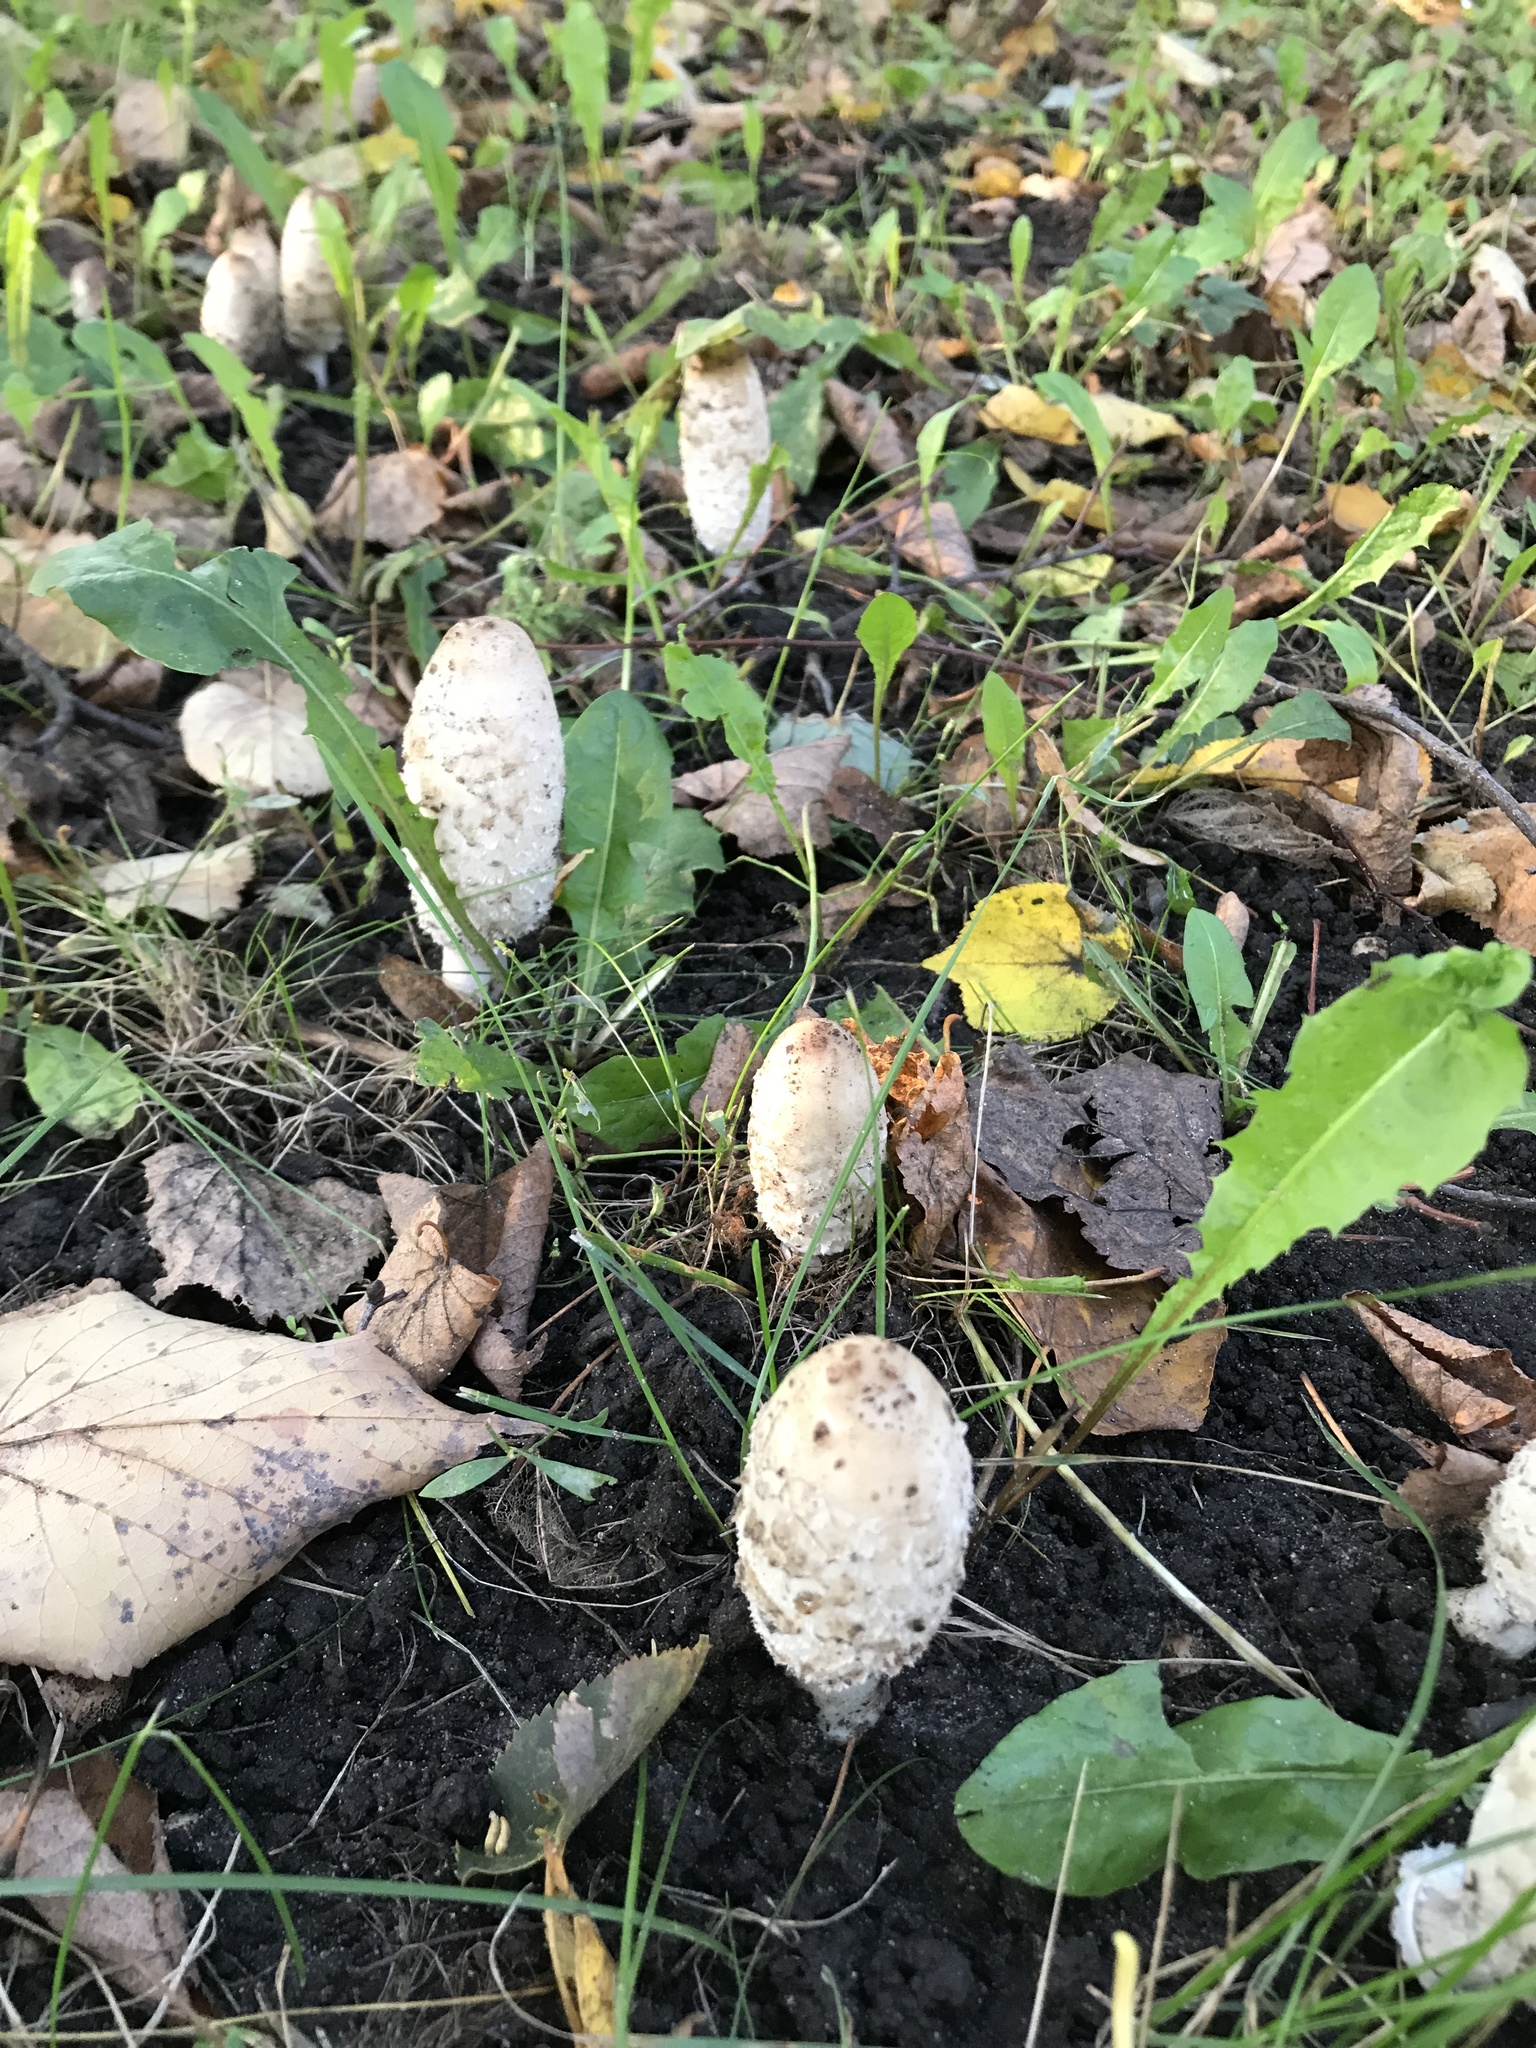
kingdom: Fungi
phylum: Basidiomycota
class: Agaricomycetes
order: Agaricales
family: Agaricaceae
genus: Coprinus
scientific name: Coprinus comatus
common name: Lawyer's wig
